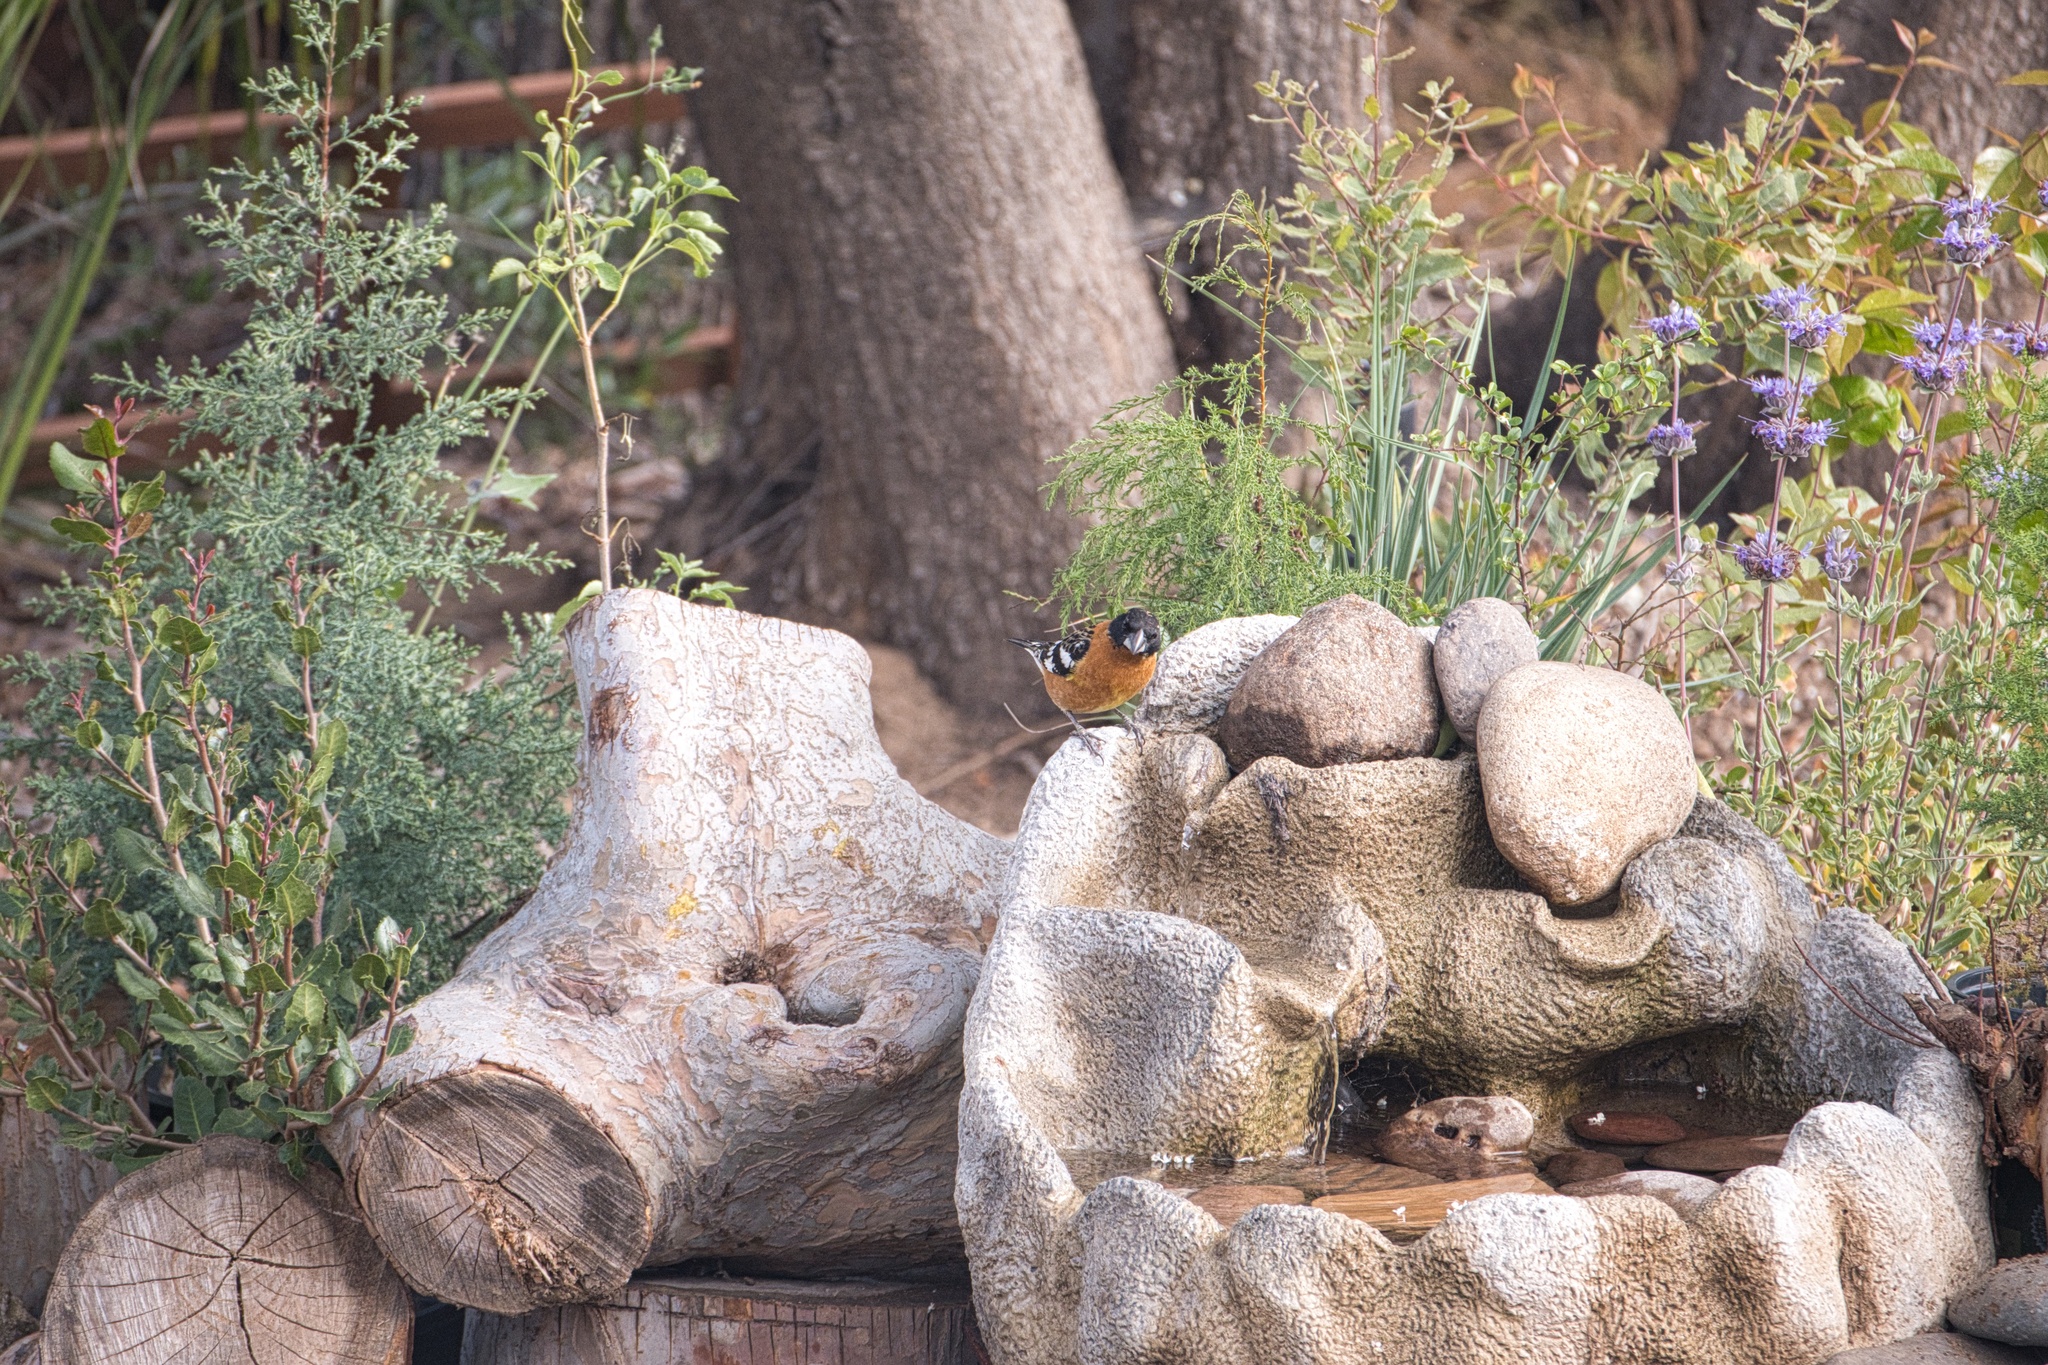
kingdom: Animalia
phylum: Chordata
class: Aves
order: Passeriformes
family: Cardinalidae
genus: Pheucticus
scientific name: Pheucticus melanocephalus
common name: Black-headed grosbeak
